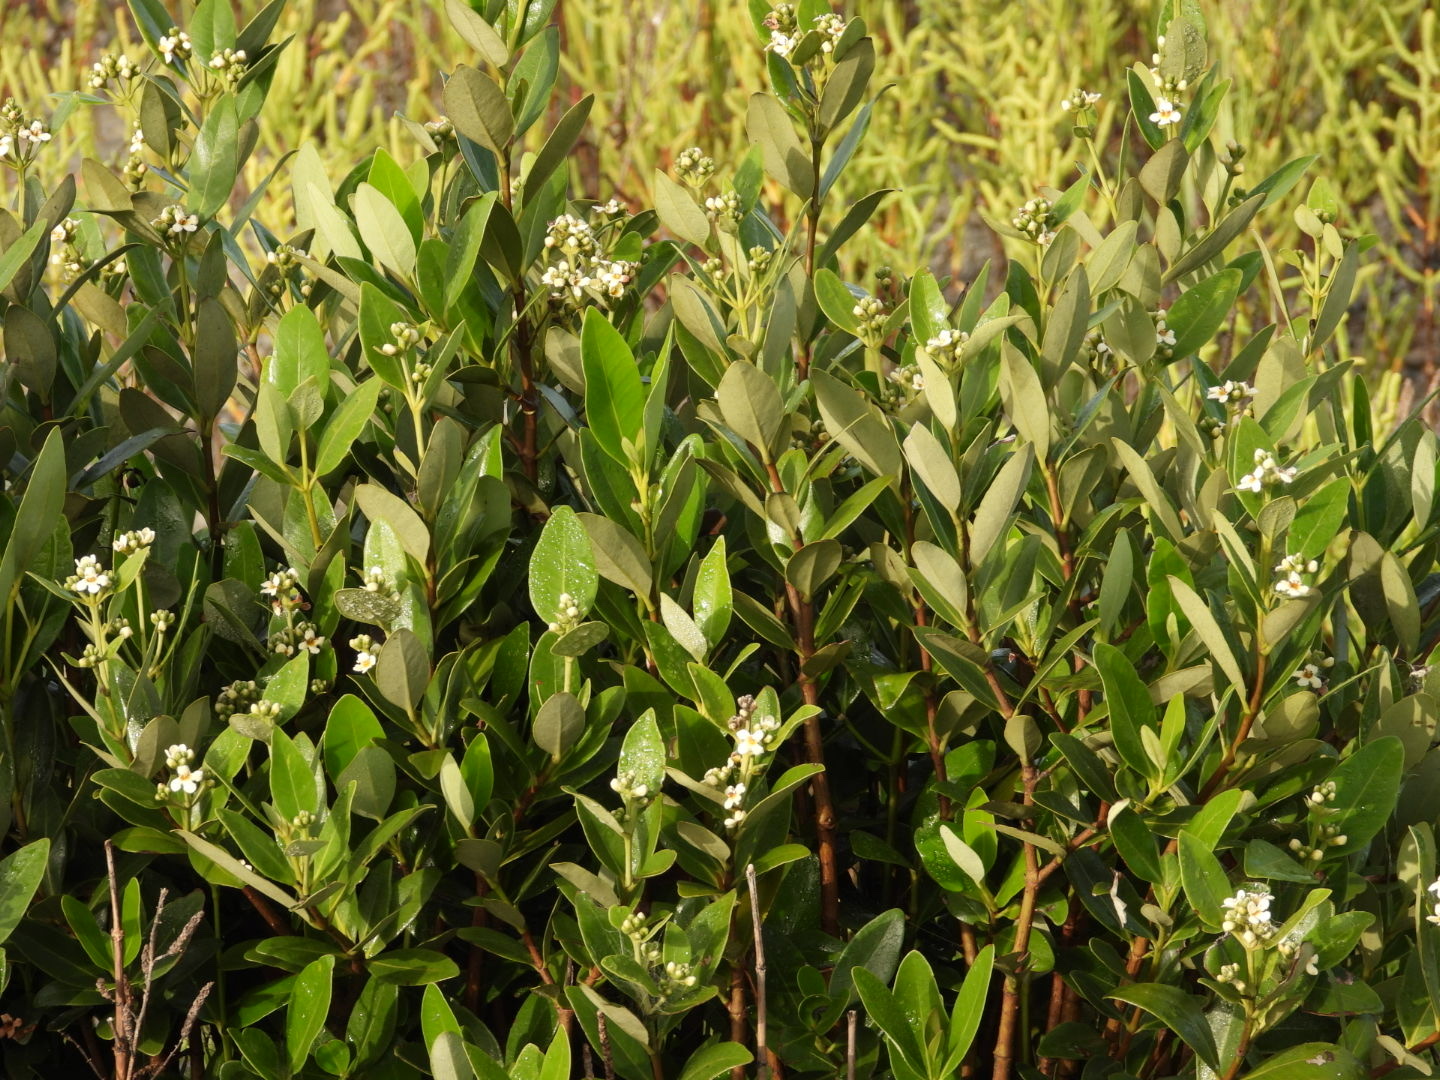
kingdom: Plantae
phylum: Tracheophyta
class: Magnoliopsida
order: Lamiales
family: Acanthaceae
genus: Avicennia
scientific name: Avicennia germinans
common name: Black mangrove
